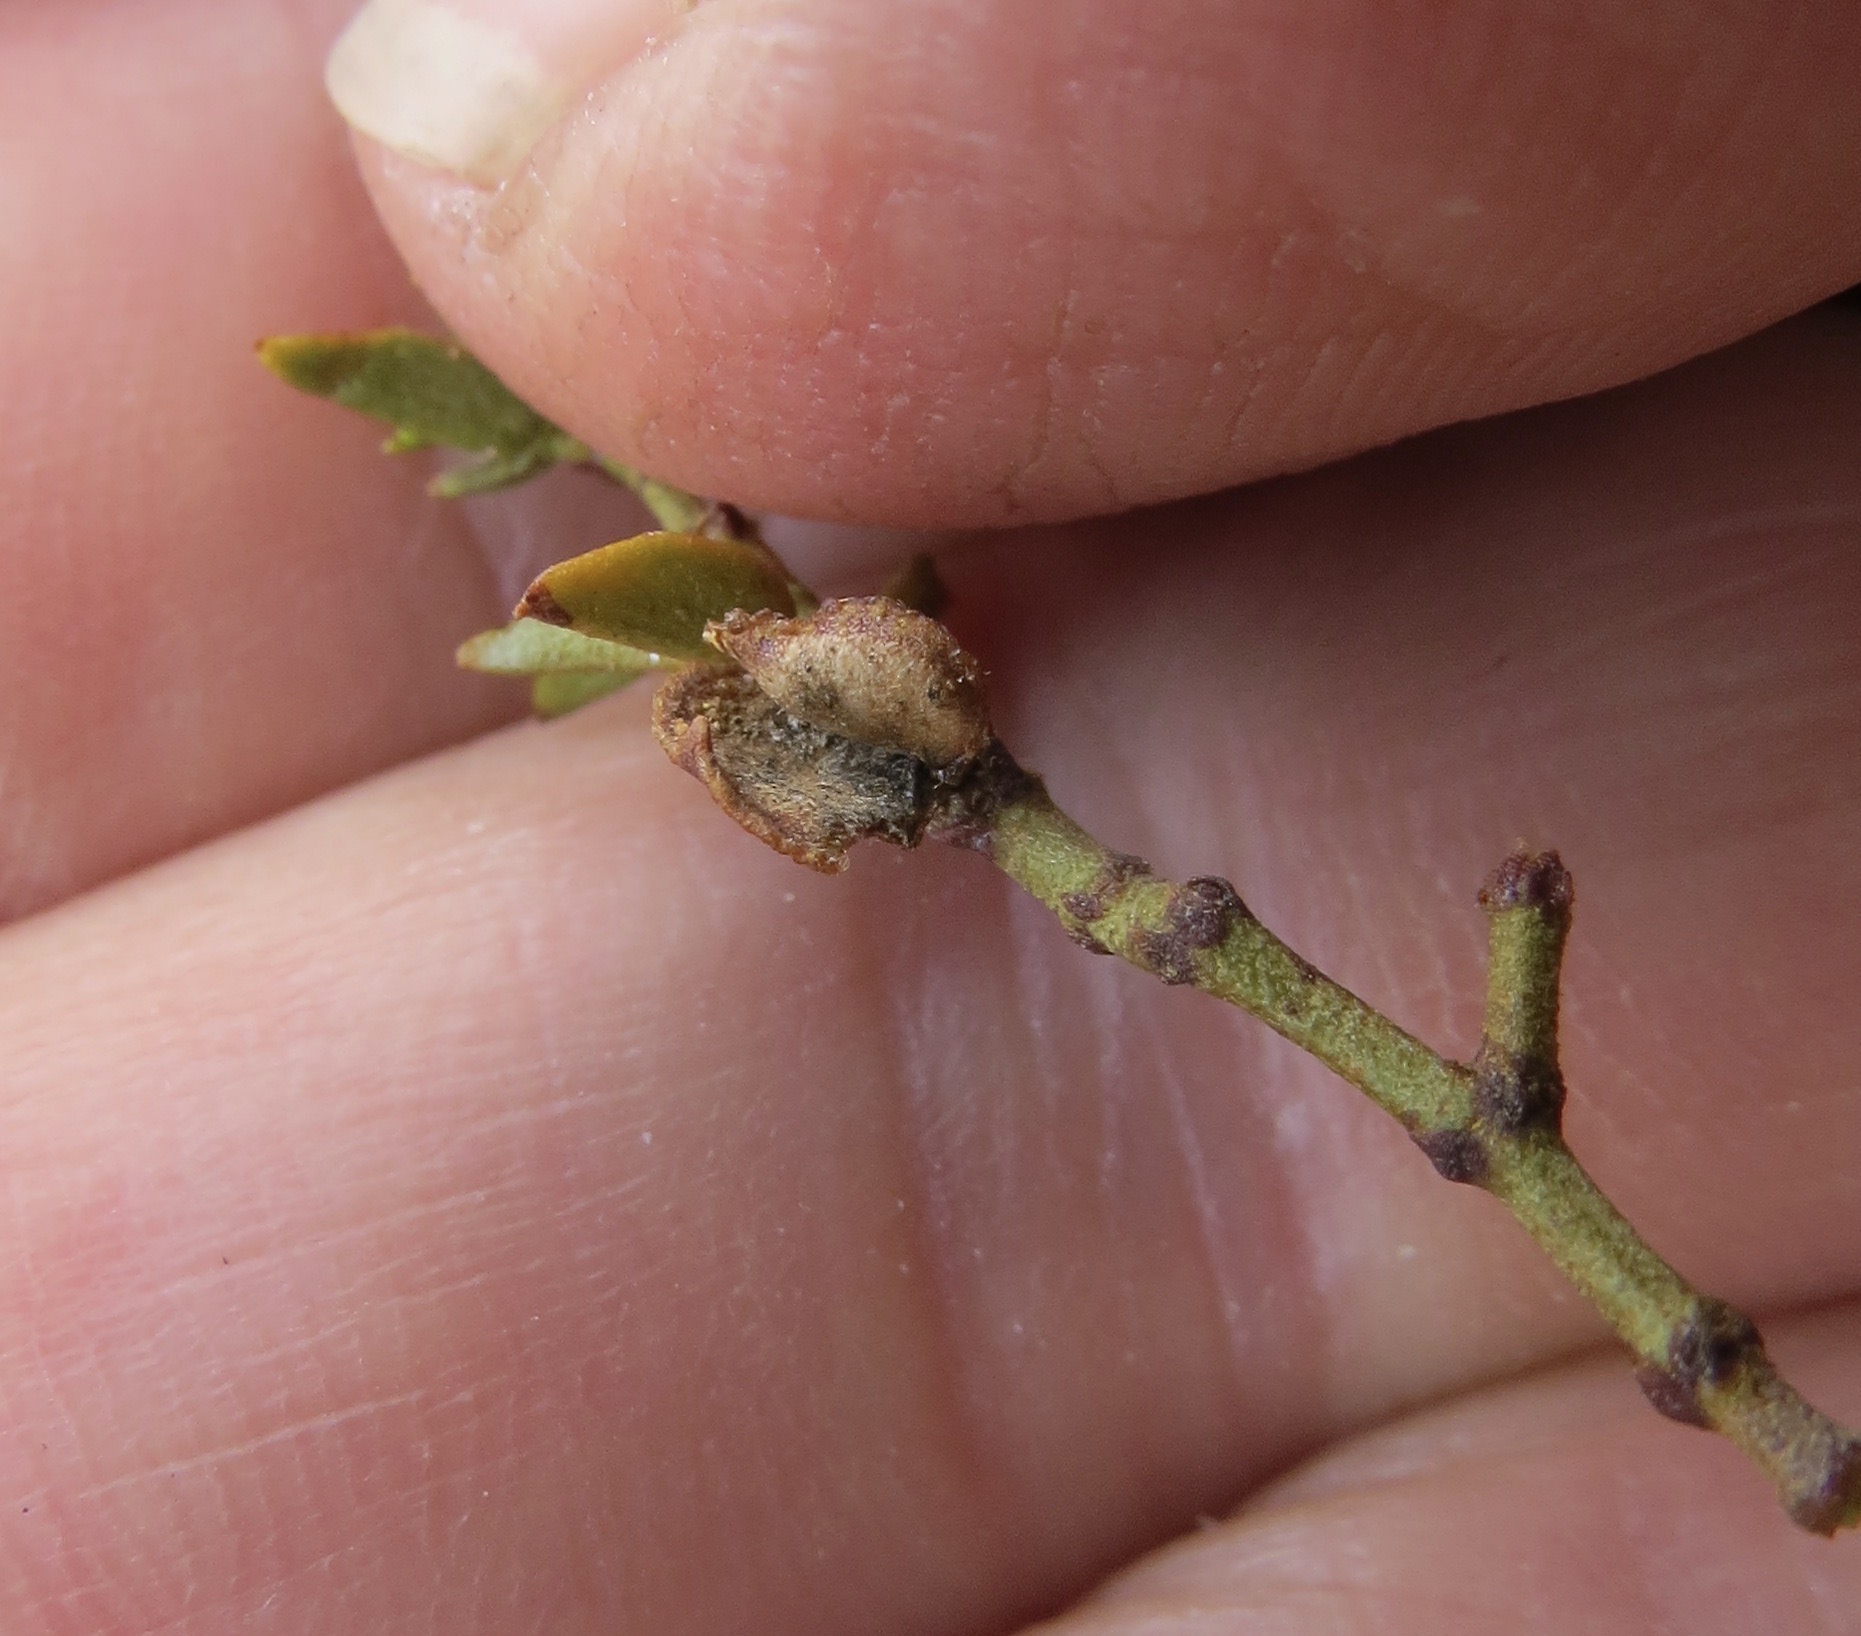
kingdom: Animalia
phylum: Arthropoda
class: Insecta
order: Diptera
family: Cecidomyiidae
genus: Contarinia
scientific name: Contarinia
